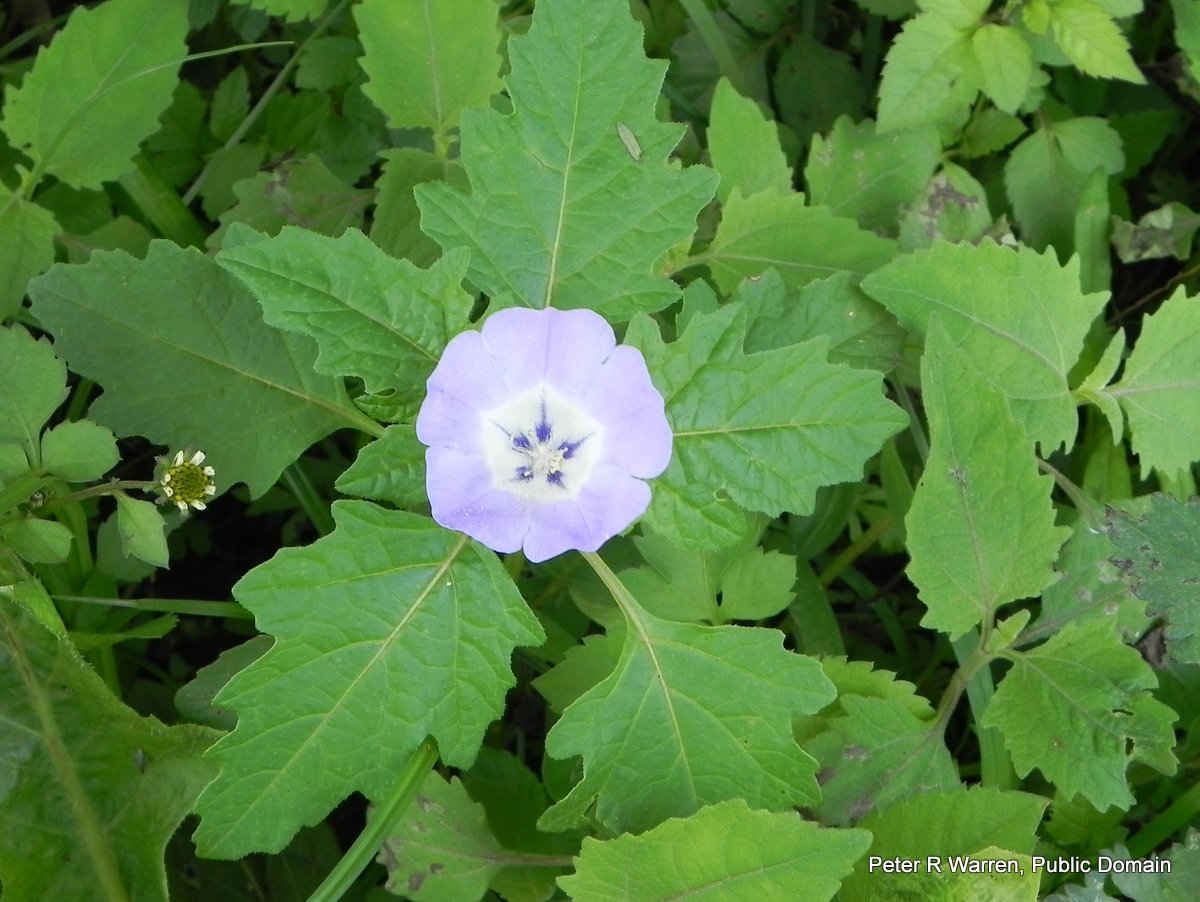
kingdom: Plantae
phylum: Tracheophyta
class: Magnoliopsida
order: Solanales
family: Solanaceae
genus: Nicandra
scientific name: Nicandra physalodes
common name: Apple-of-peru
